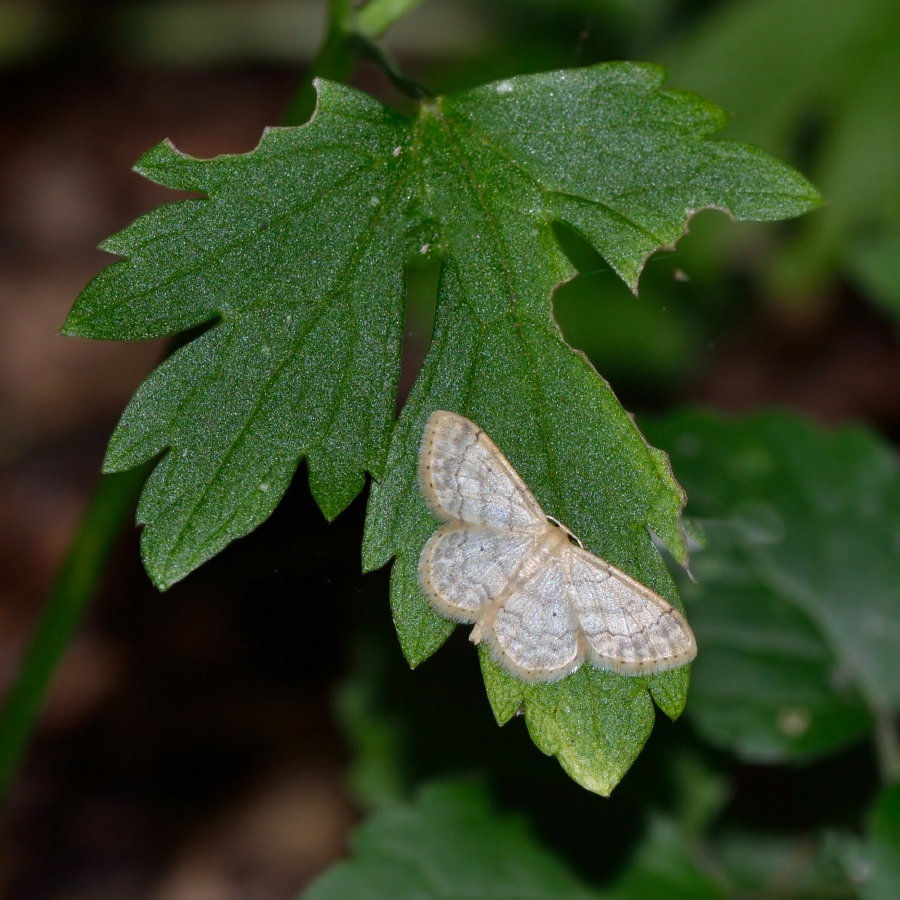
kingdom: Animalia
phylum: Arthropoda
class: Insecta
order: Lepidoptera
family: Geometridae
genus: Idaea
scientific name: Idaea biselata
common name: Small fan-footed wave
